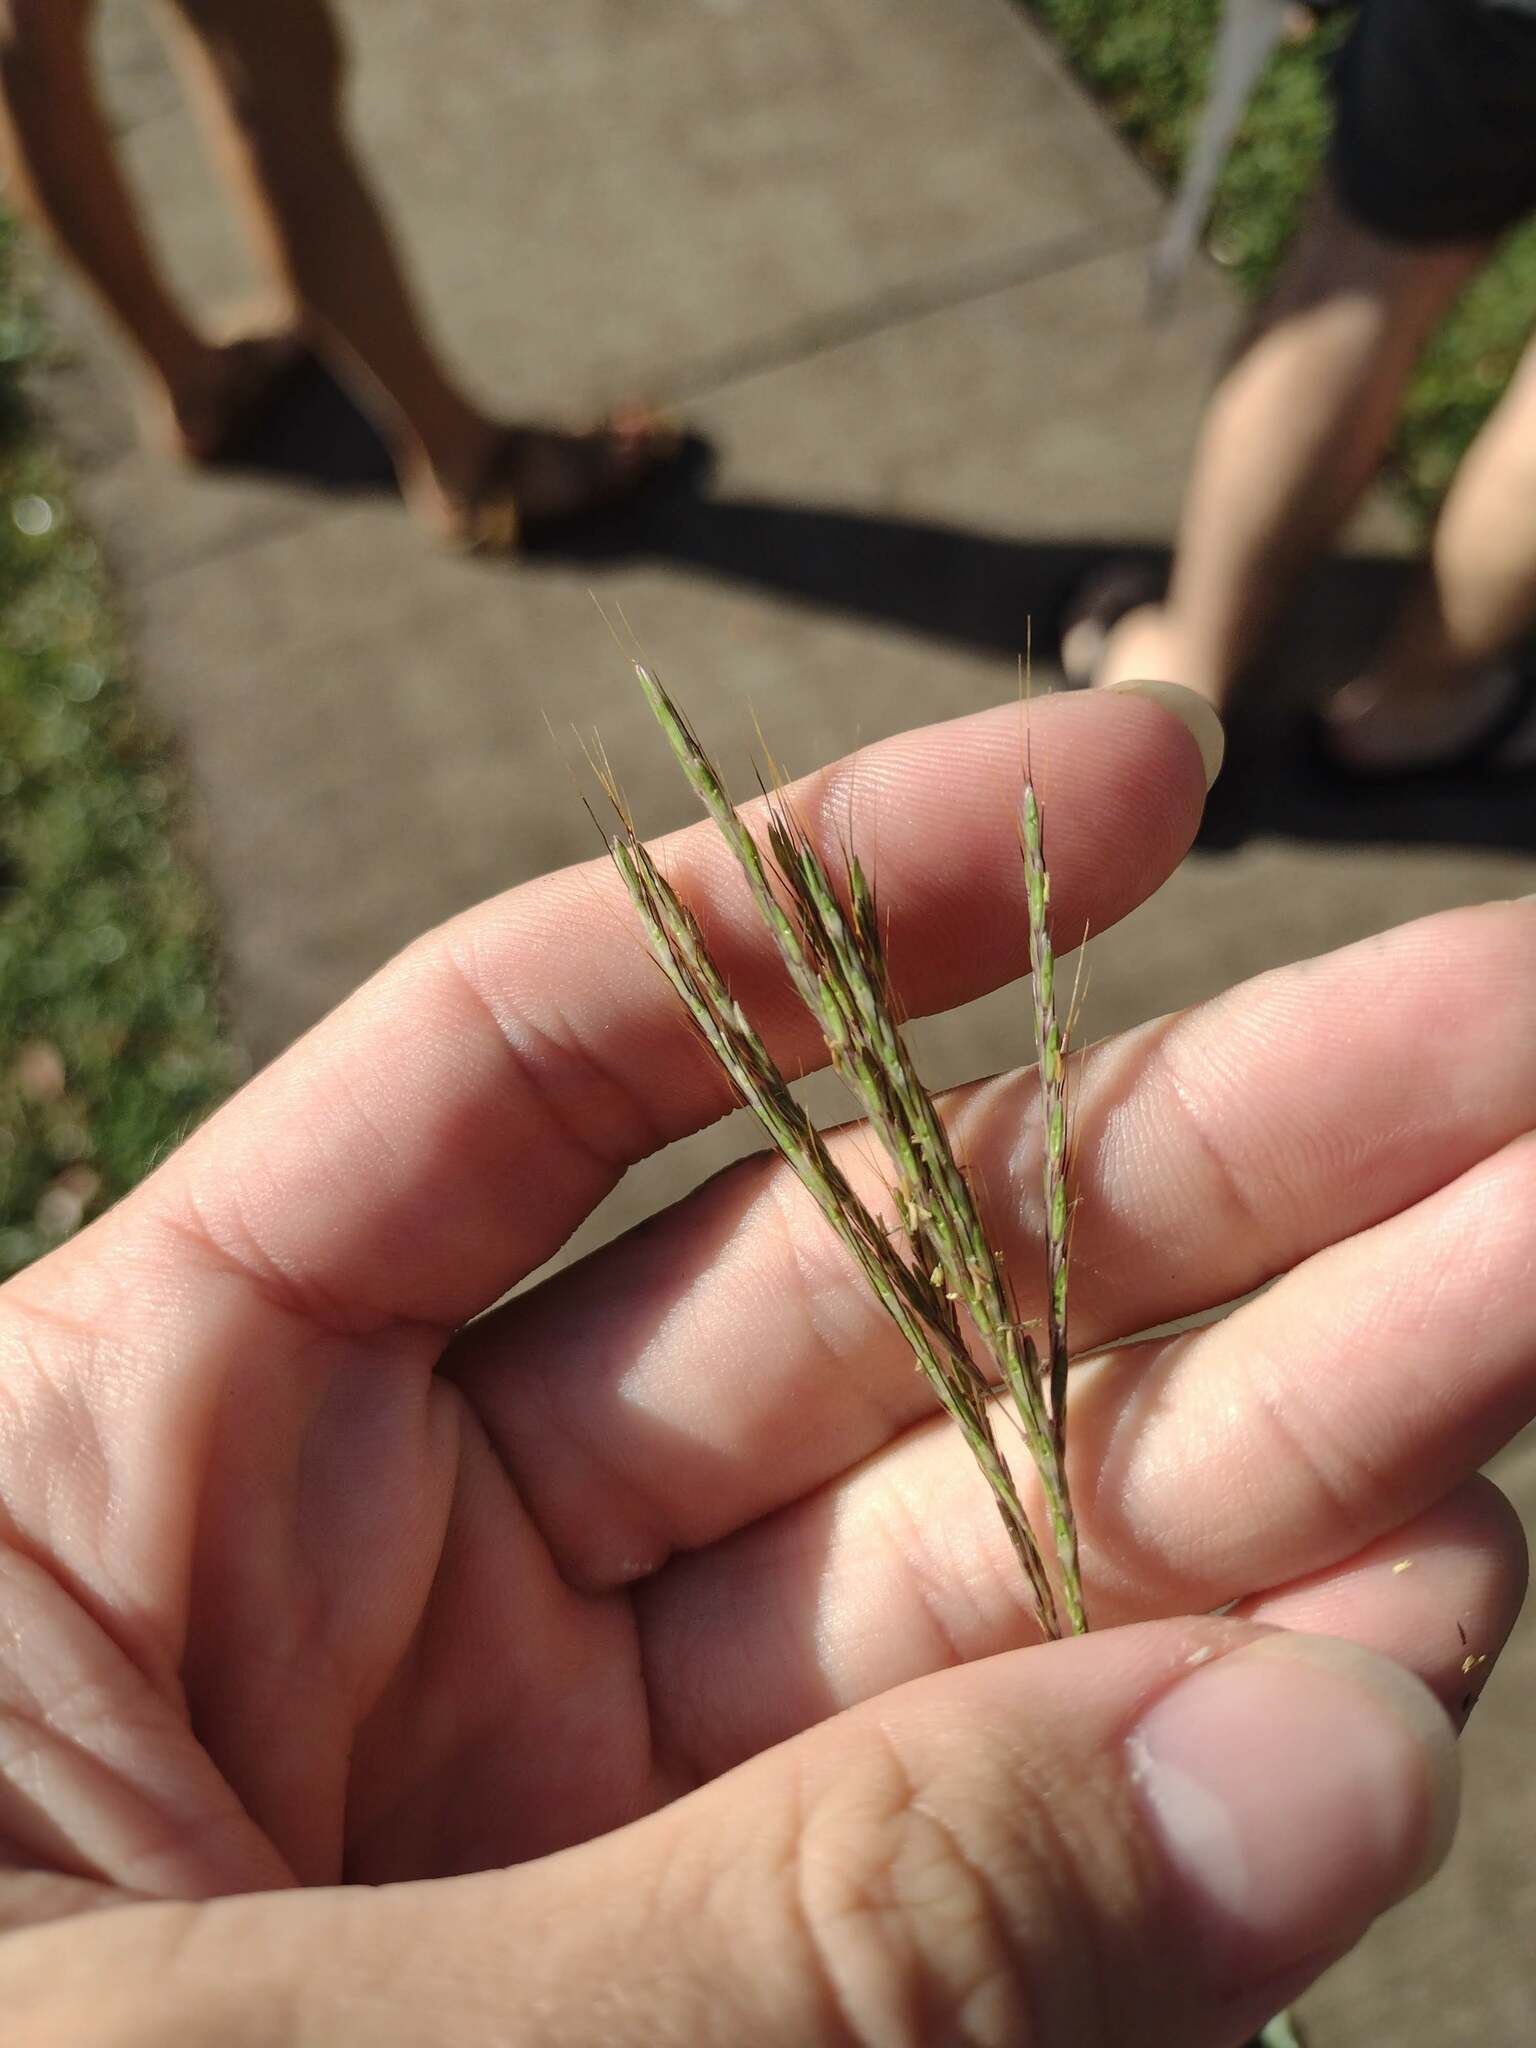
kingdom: Plantae
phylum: Tracheophyta
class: Liliopsida
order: Poales
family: Poaceae
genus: Bothriochloa
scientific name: Bothriochloa pertusa
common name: Pitted beardgrass
